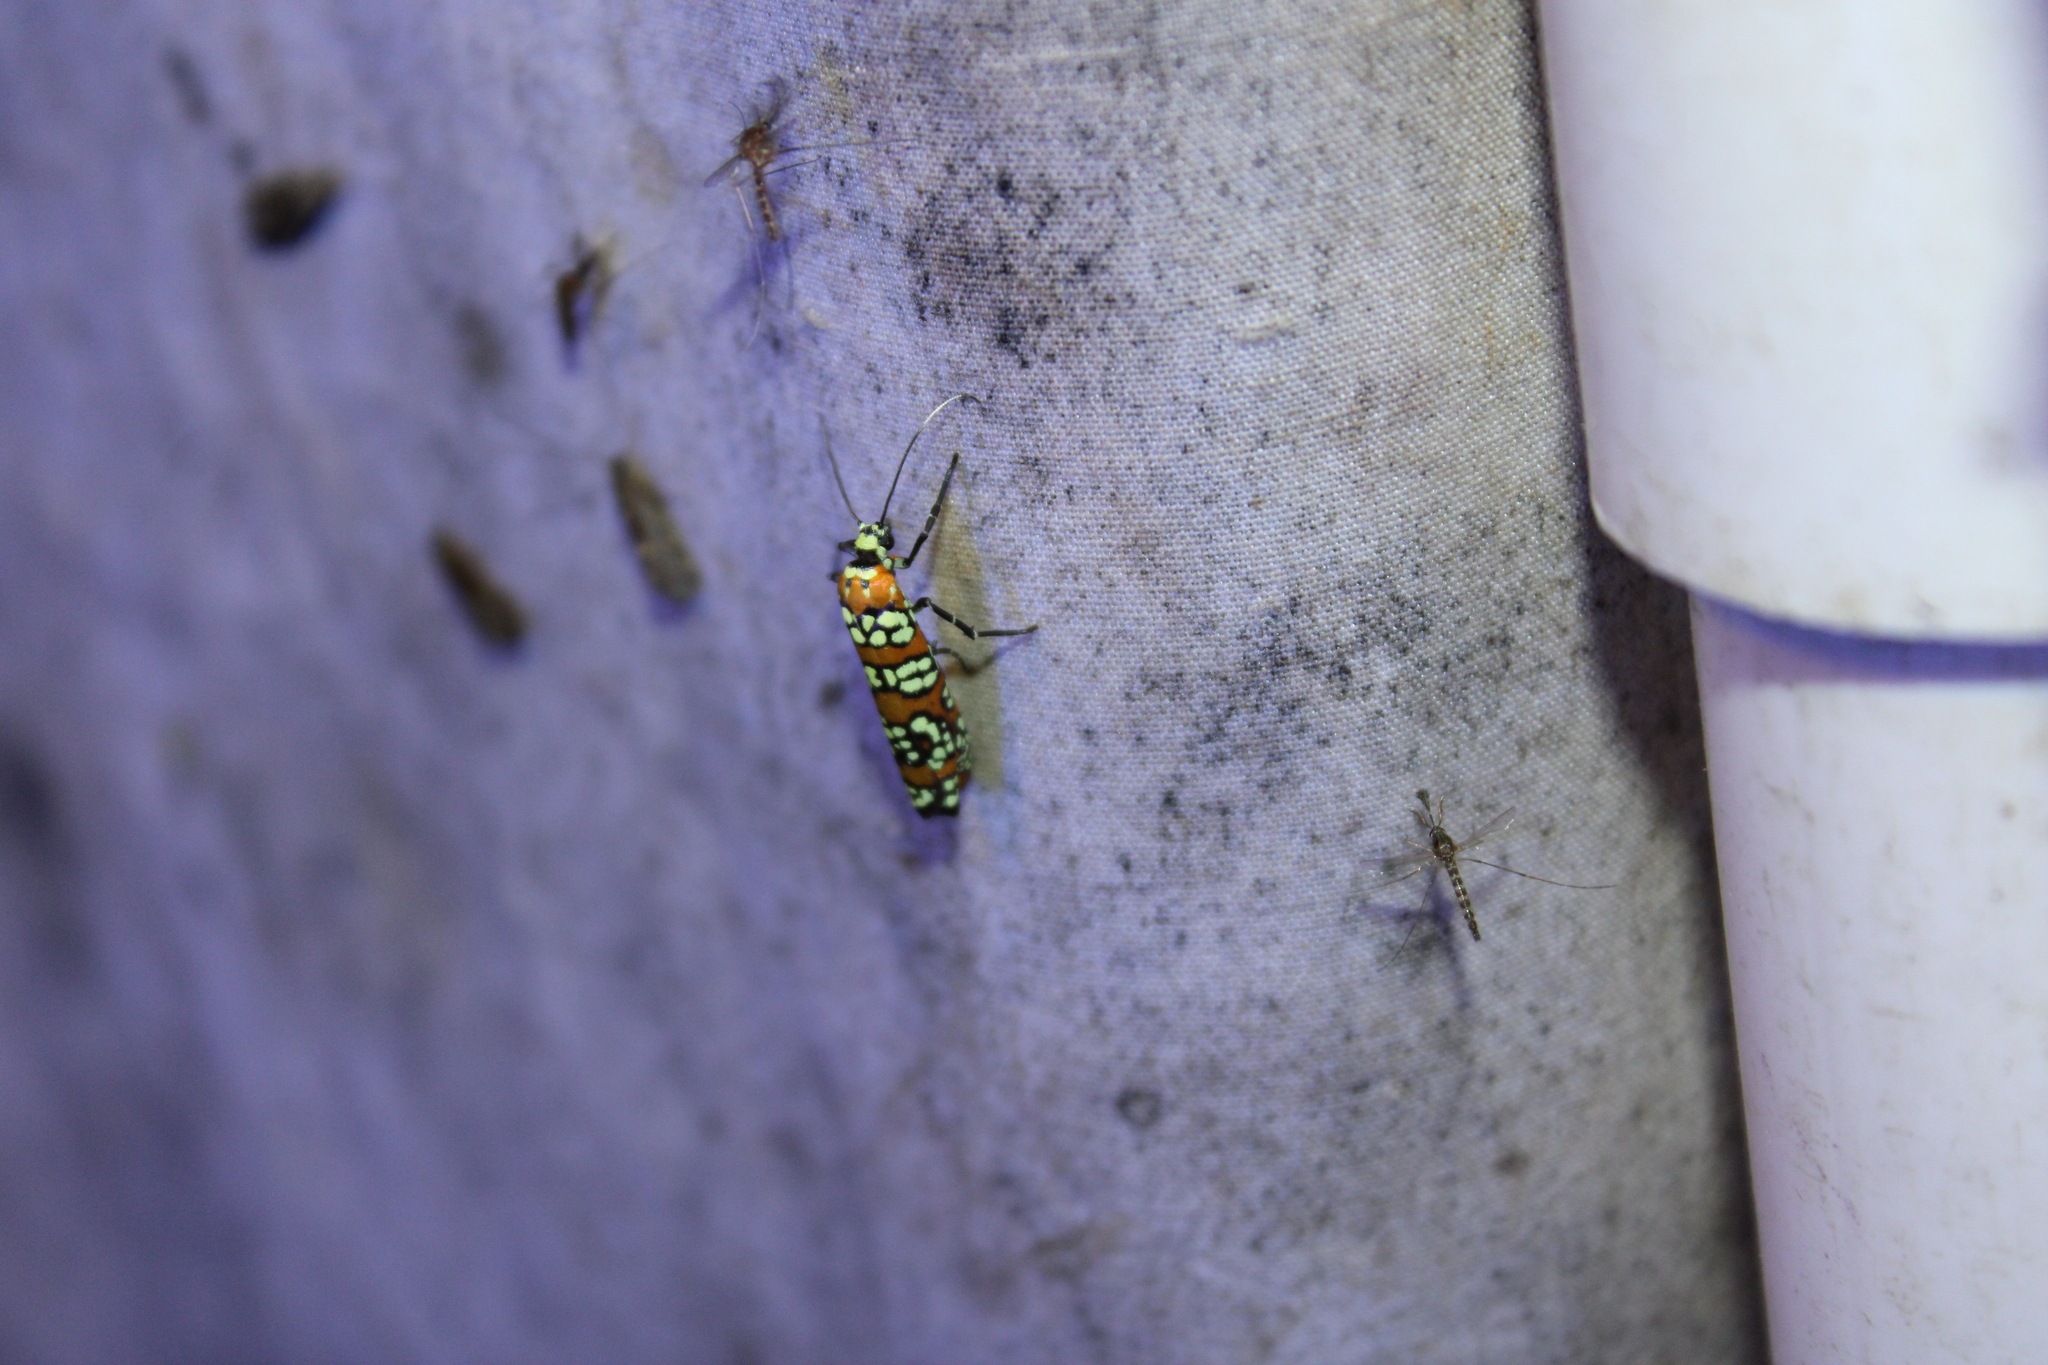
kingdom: Animalia
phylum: Arthropoda
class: Insecta
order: Lepidoptera
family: Attevidae
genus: Atteva
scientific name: Atteva punctella
